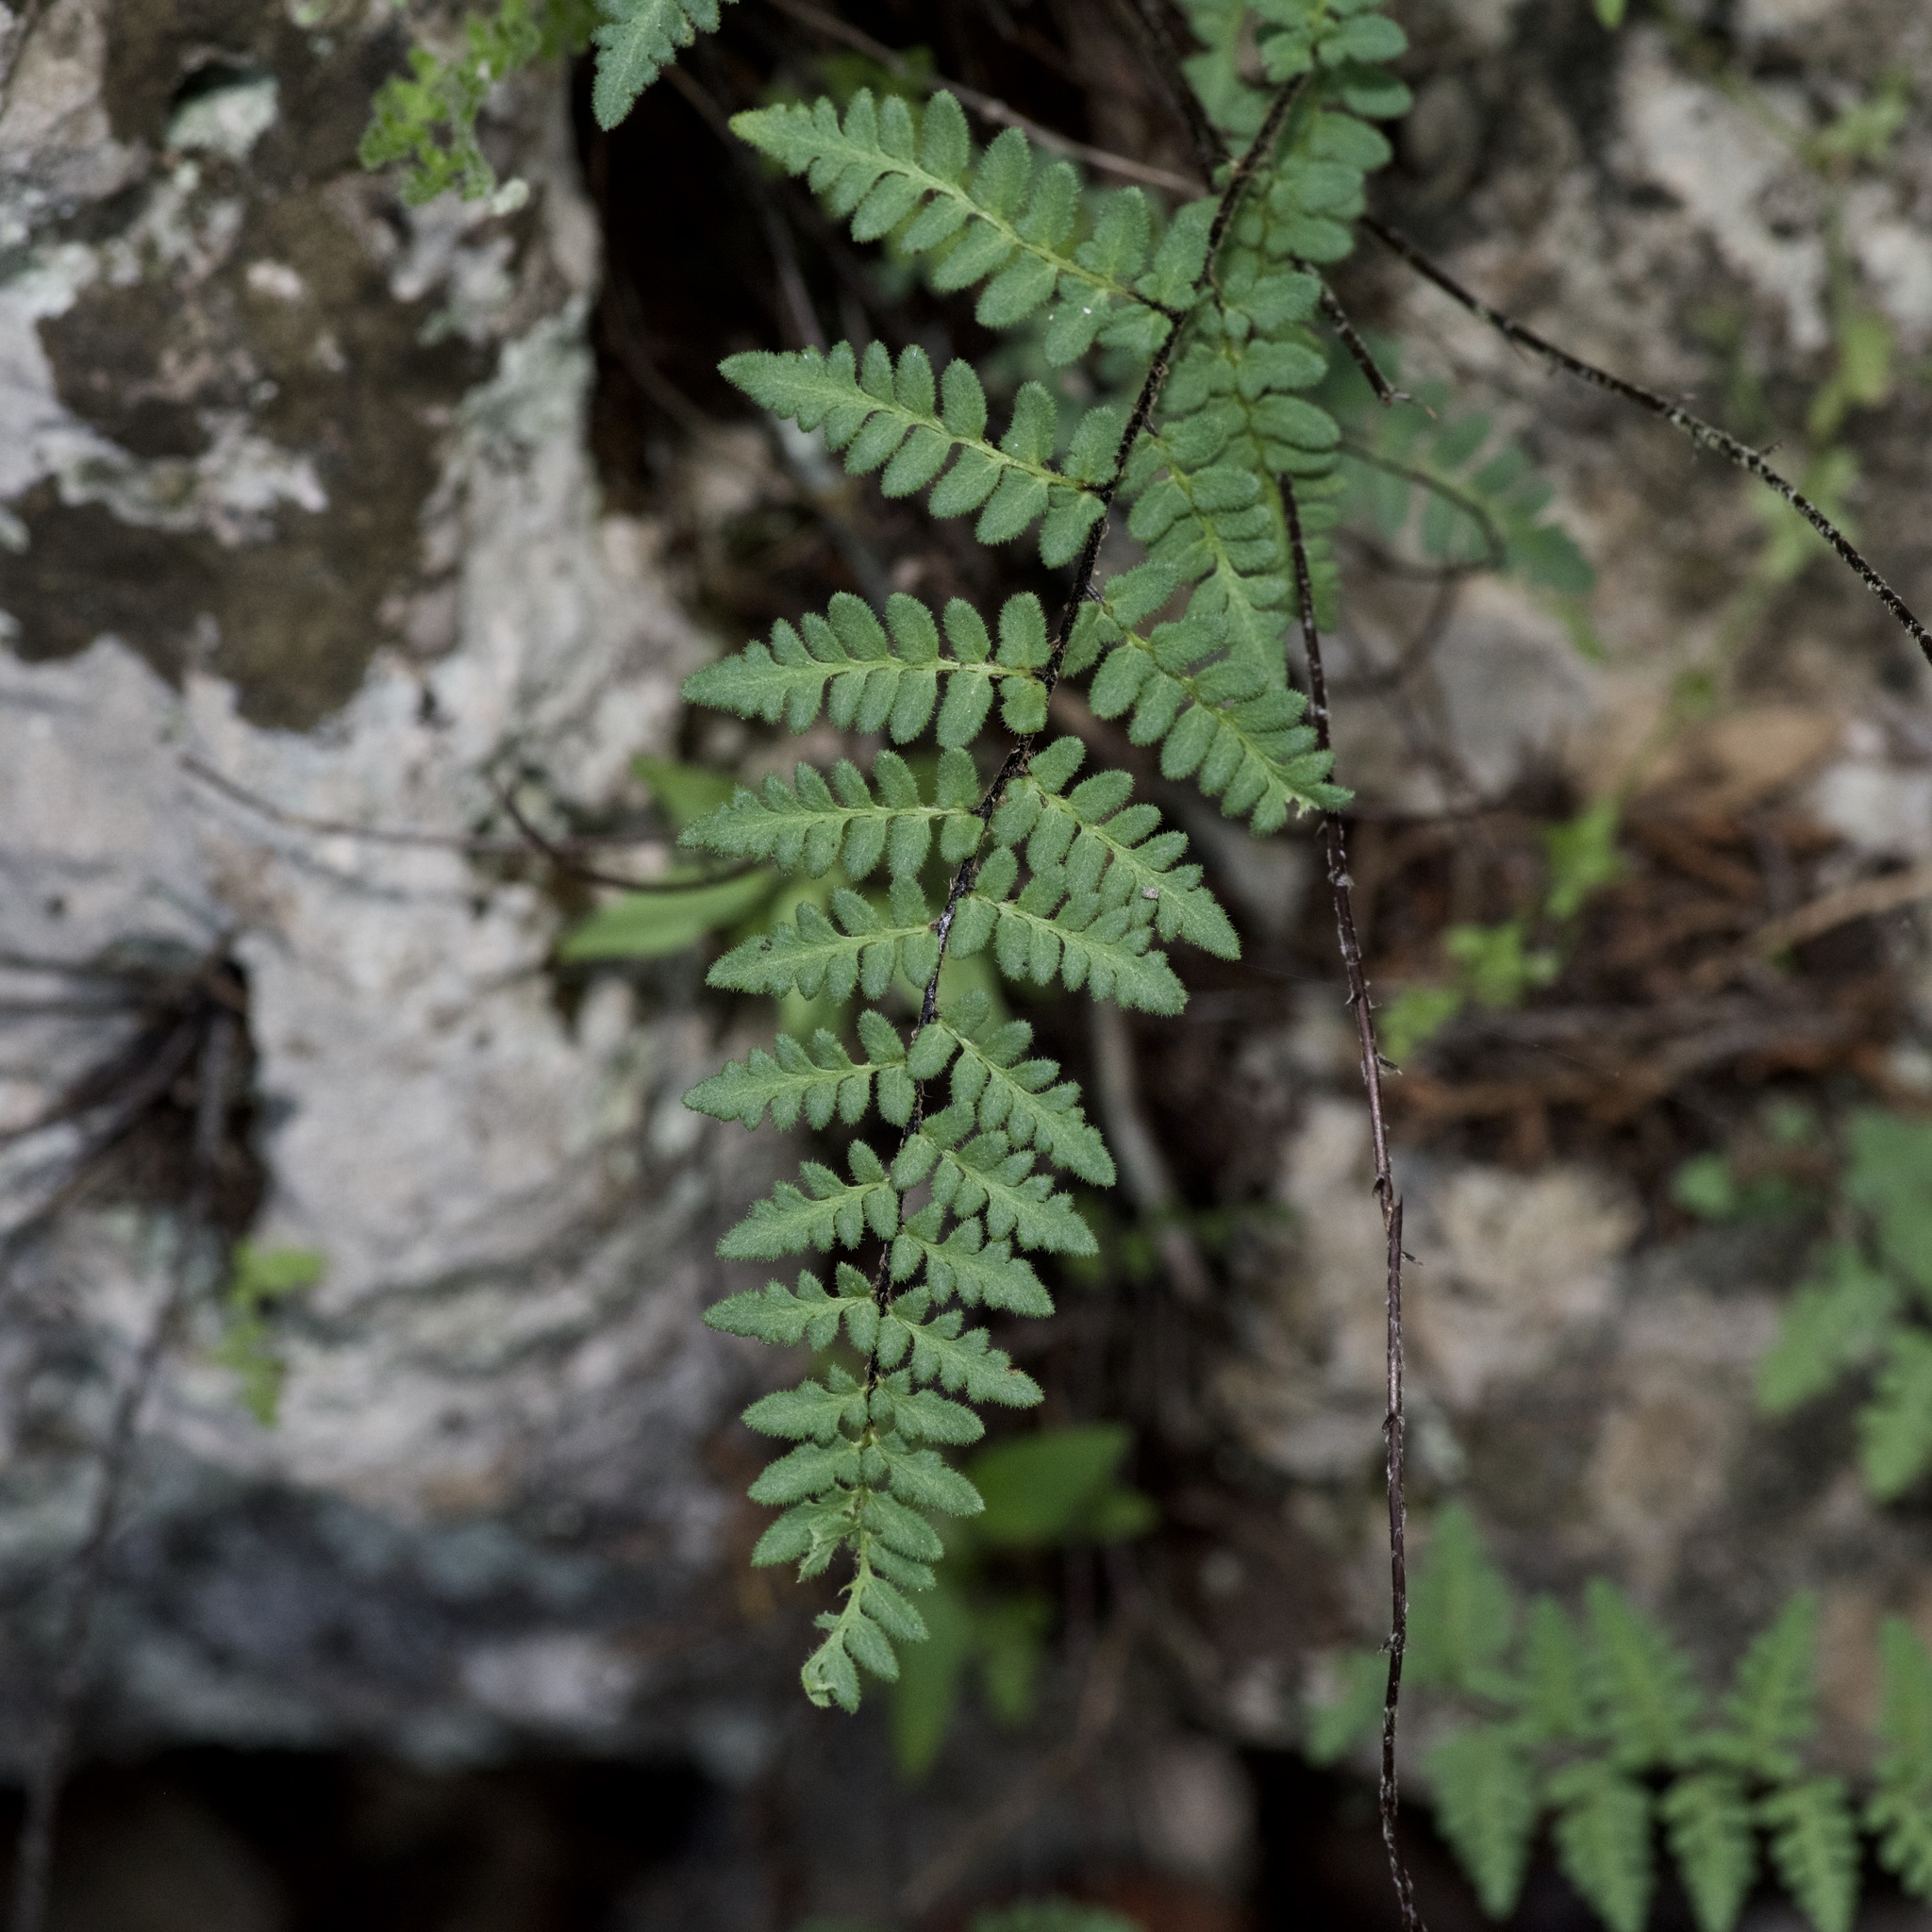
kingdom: Plantae
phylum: Tracheophyta
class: Polypodiopsida
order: Polypodiales
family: Pteridaceae
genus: Myriopteris
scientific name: Myriopteris scabra
